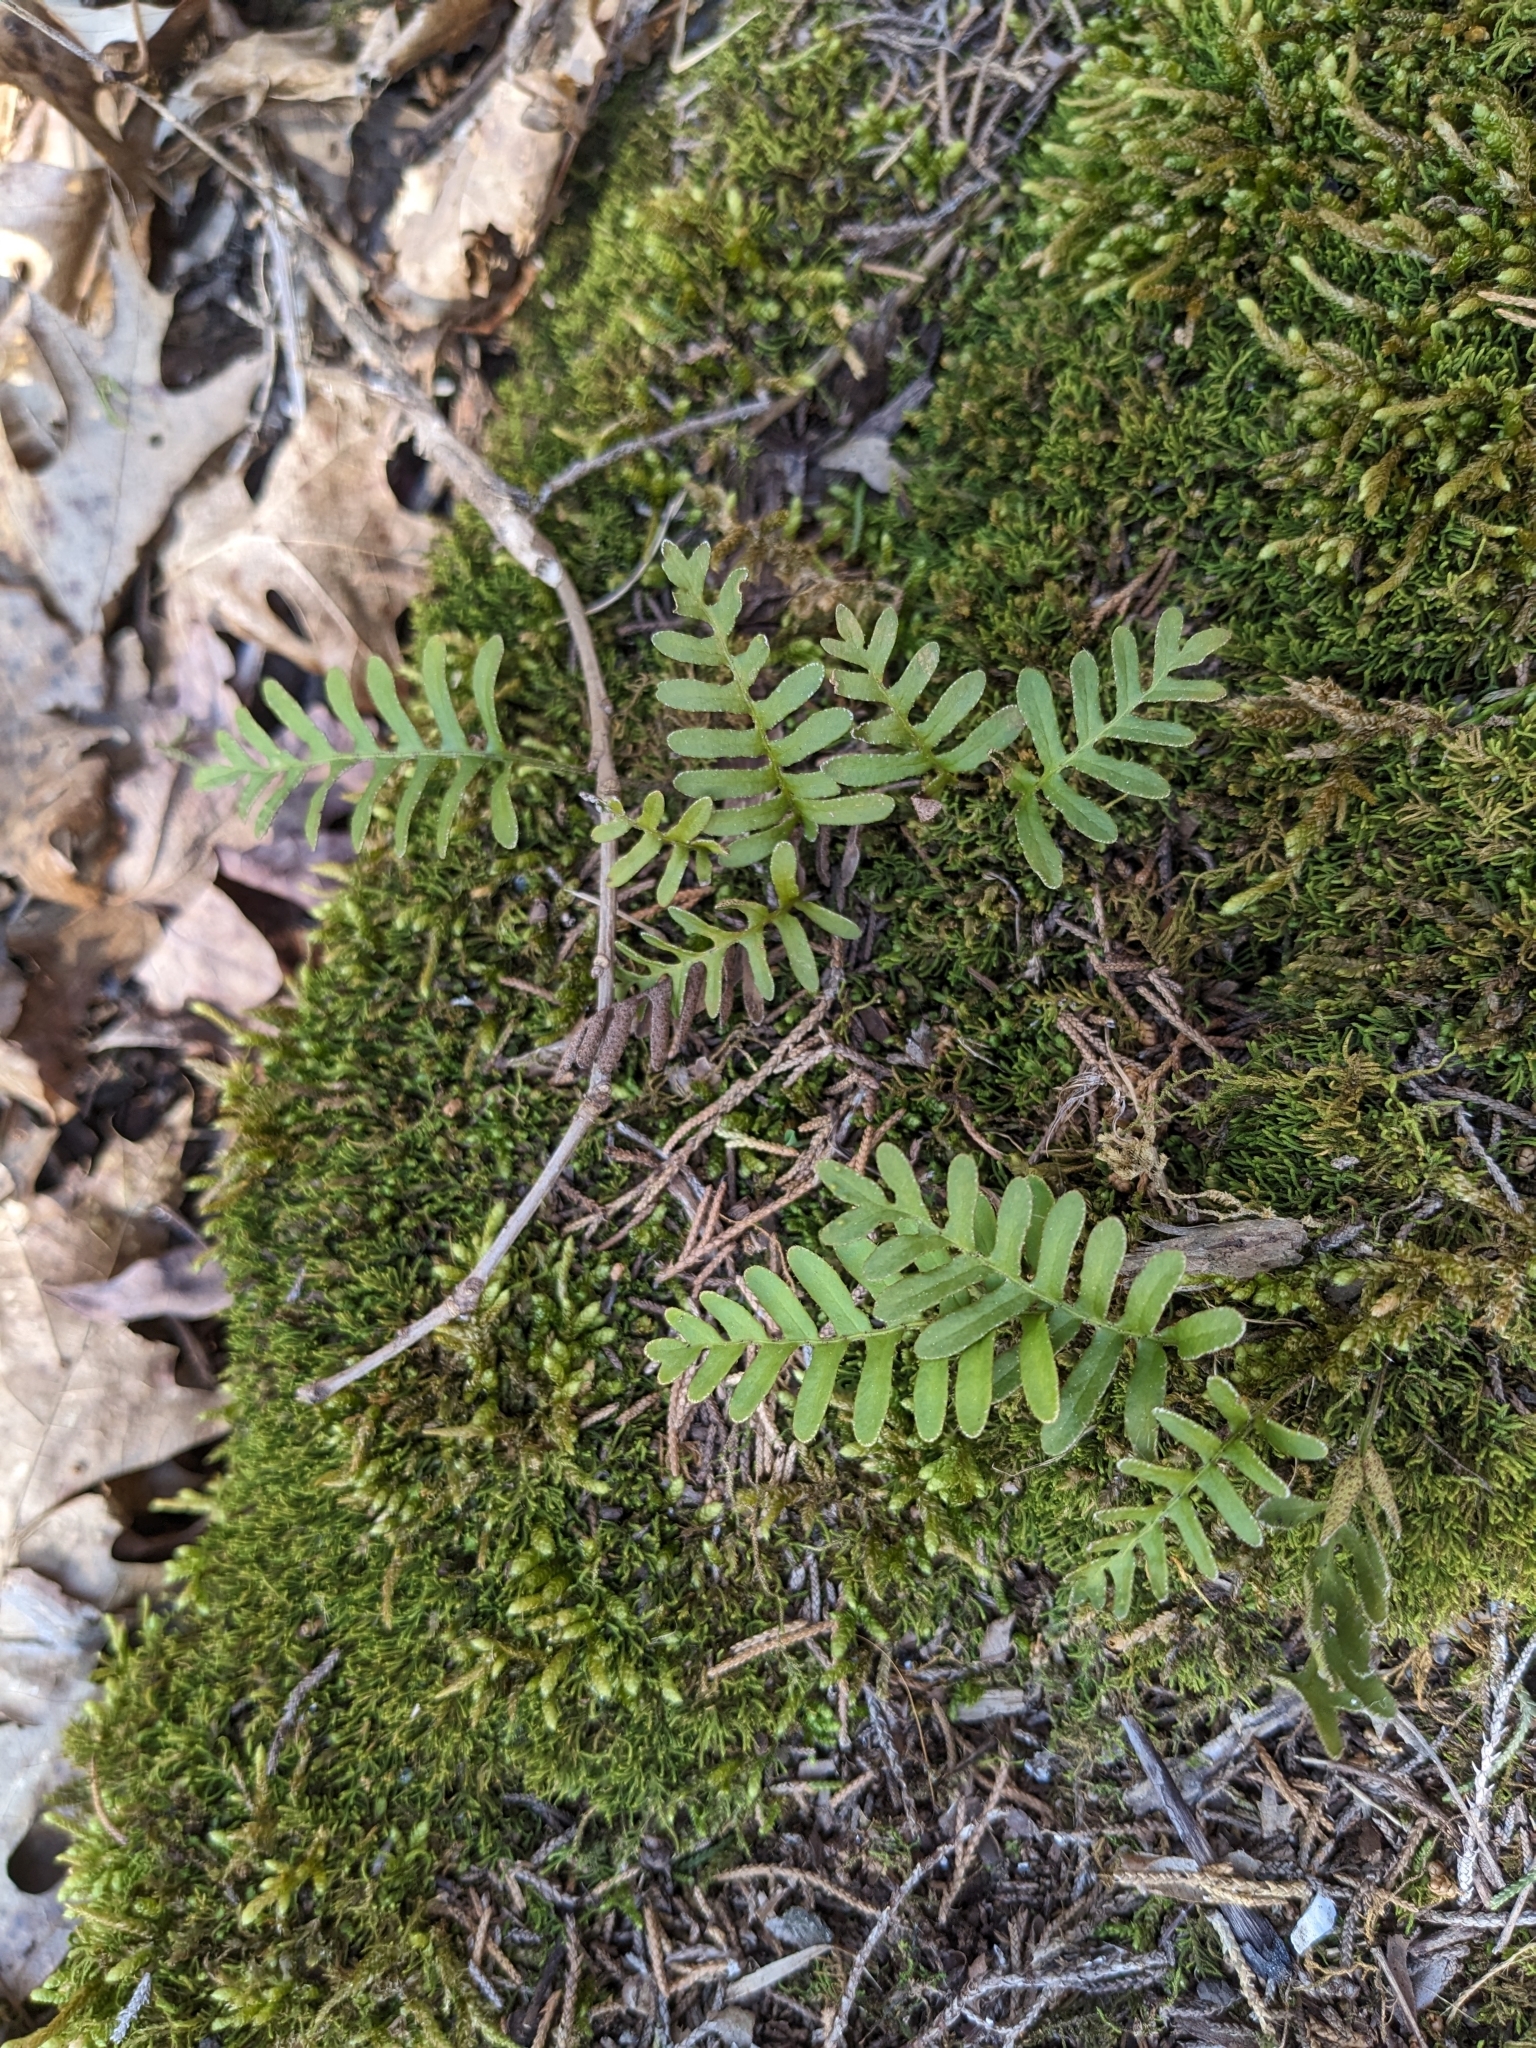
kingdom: Plantae
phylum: Tracheophyta
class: Polypodiopsida
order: Polypodiales
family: Polypodiaceae
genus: Pleopeltis
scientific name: Pleopeltis michauxiana
